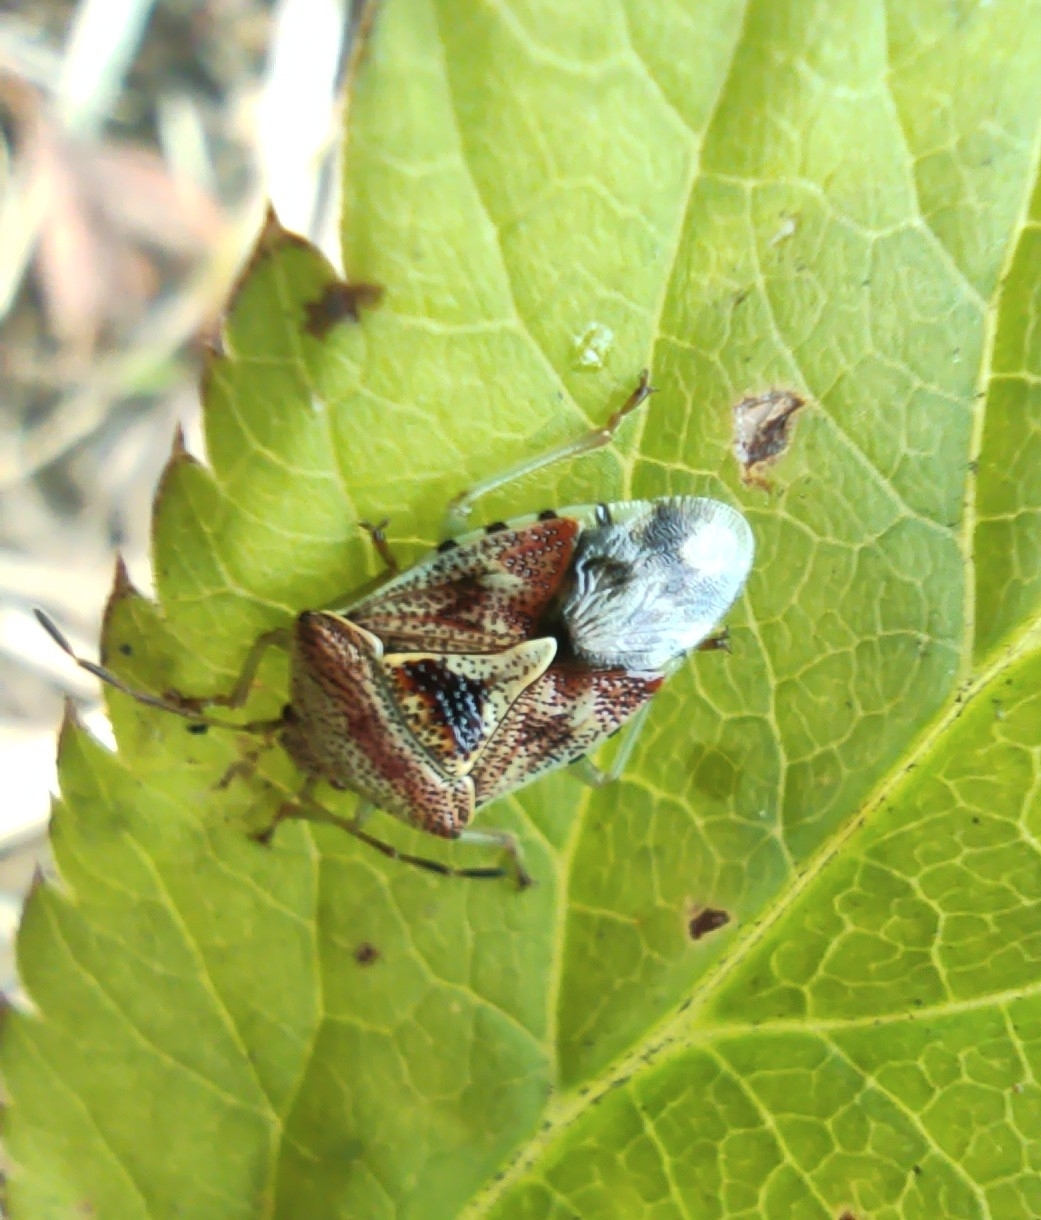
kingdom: Animalia
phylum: Arthropoda
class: Insecta
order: Hemiptera
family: Acanthosomatidae
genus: Elasmucha
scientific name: Elasmucha grisea
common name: Parent bug
